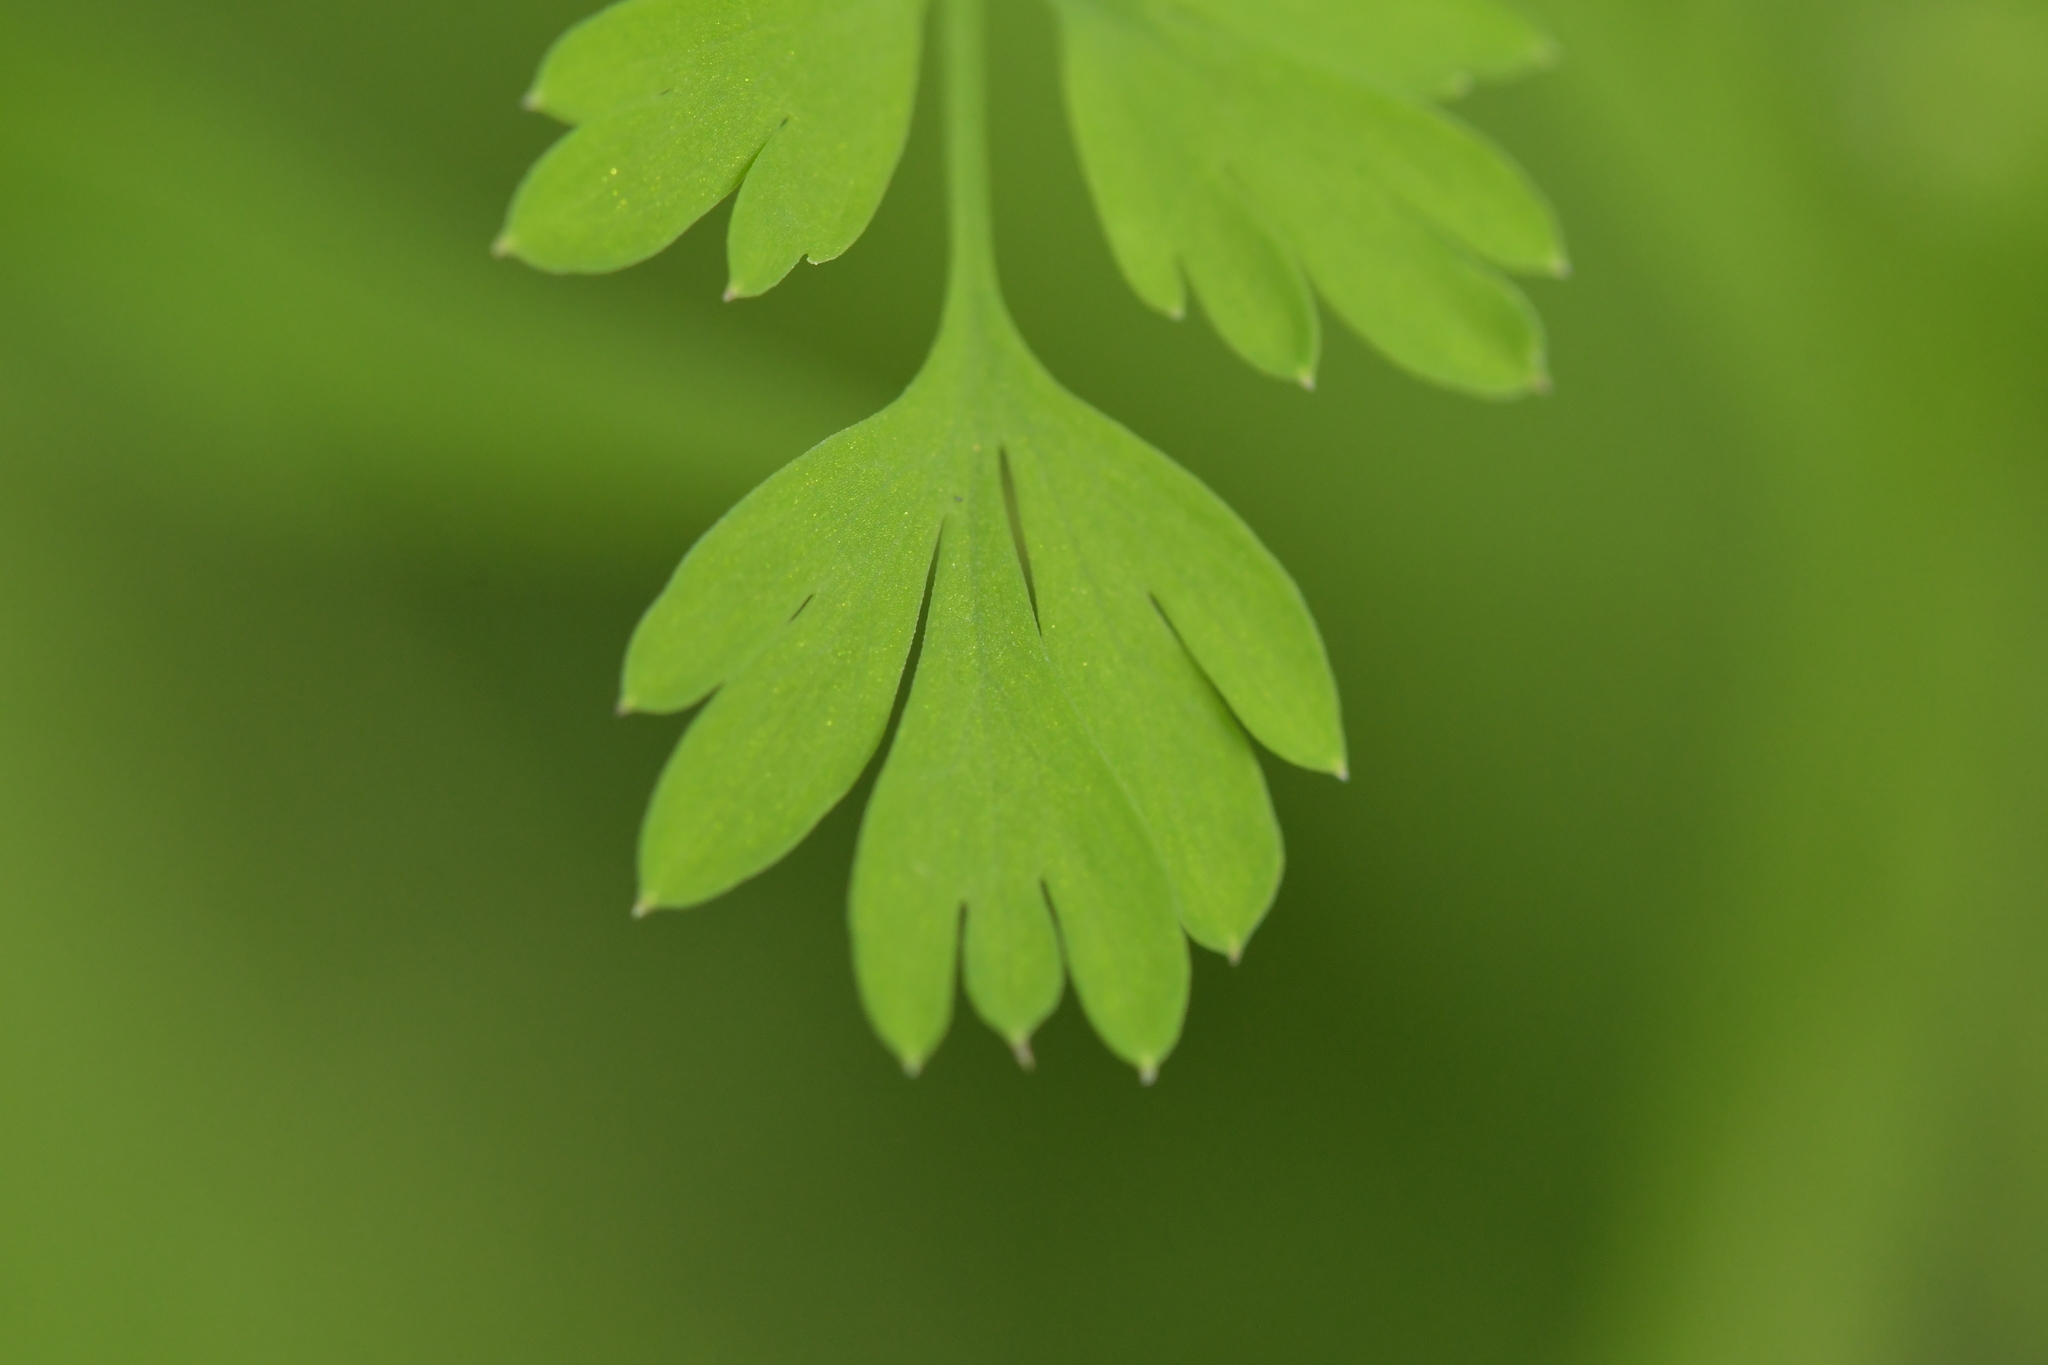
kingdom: Plantae
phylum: Tracheophyta
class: Magnoliopsida
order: Ranunculales
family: Papaveraceae
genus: Fumaria
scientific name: Fumaria muralis
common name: Common ramping-fumitory
